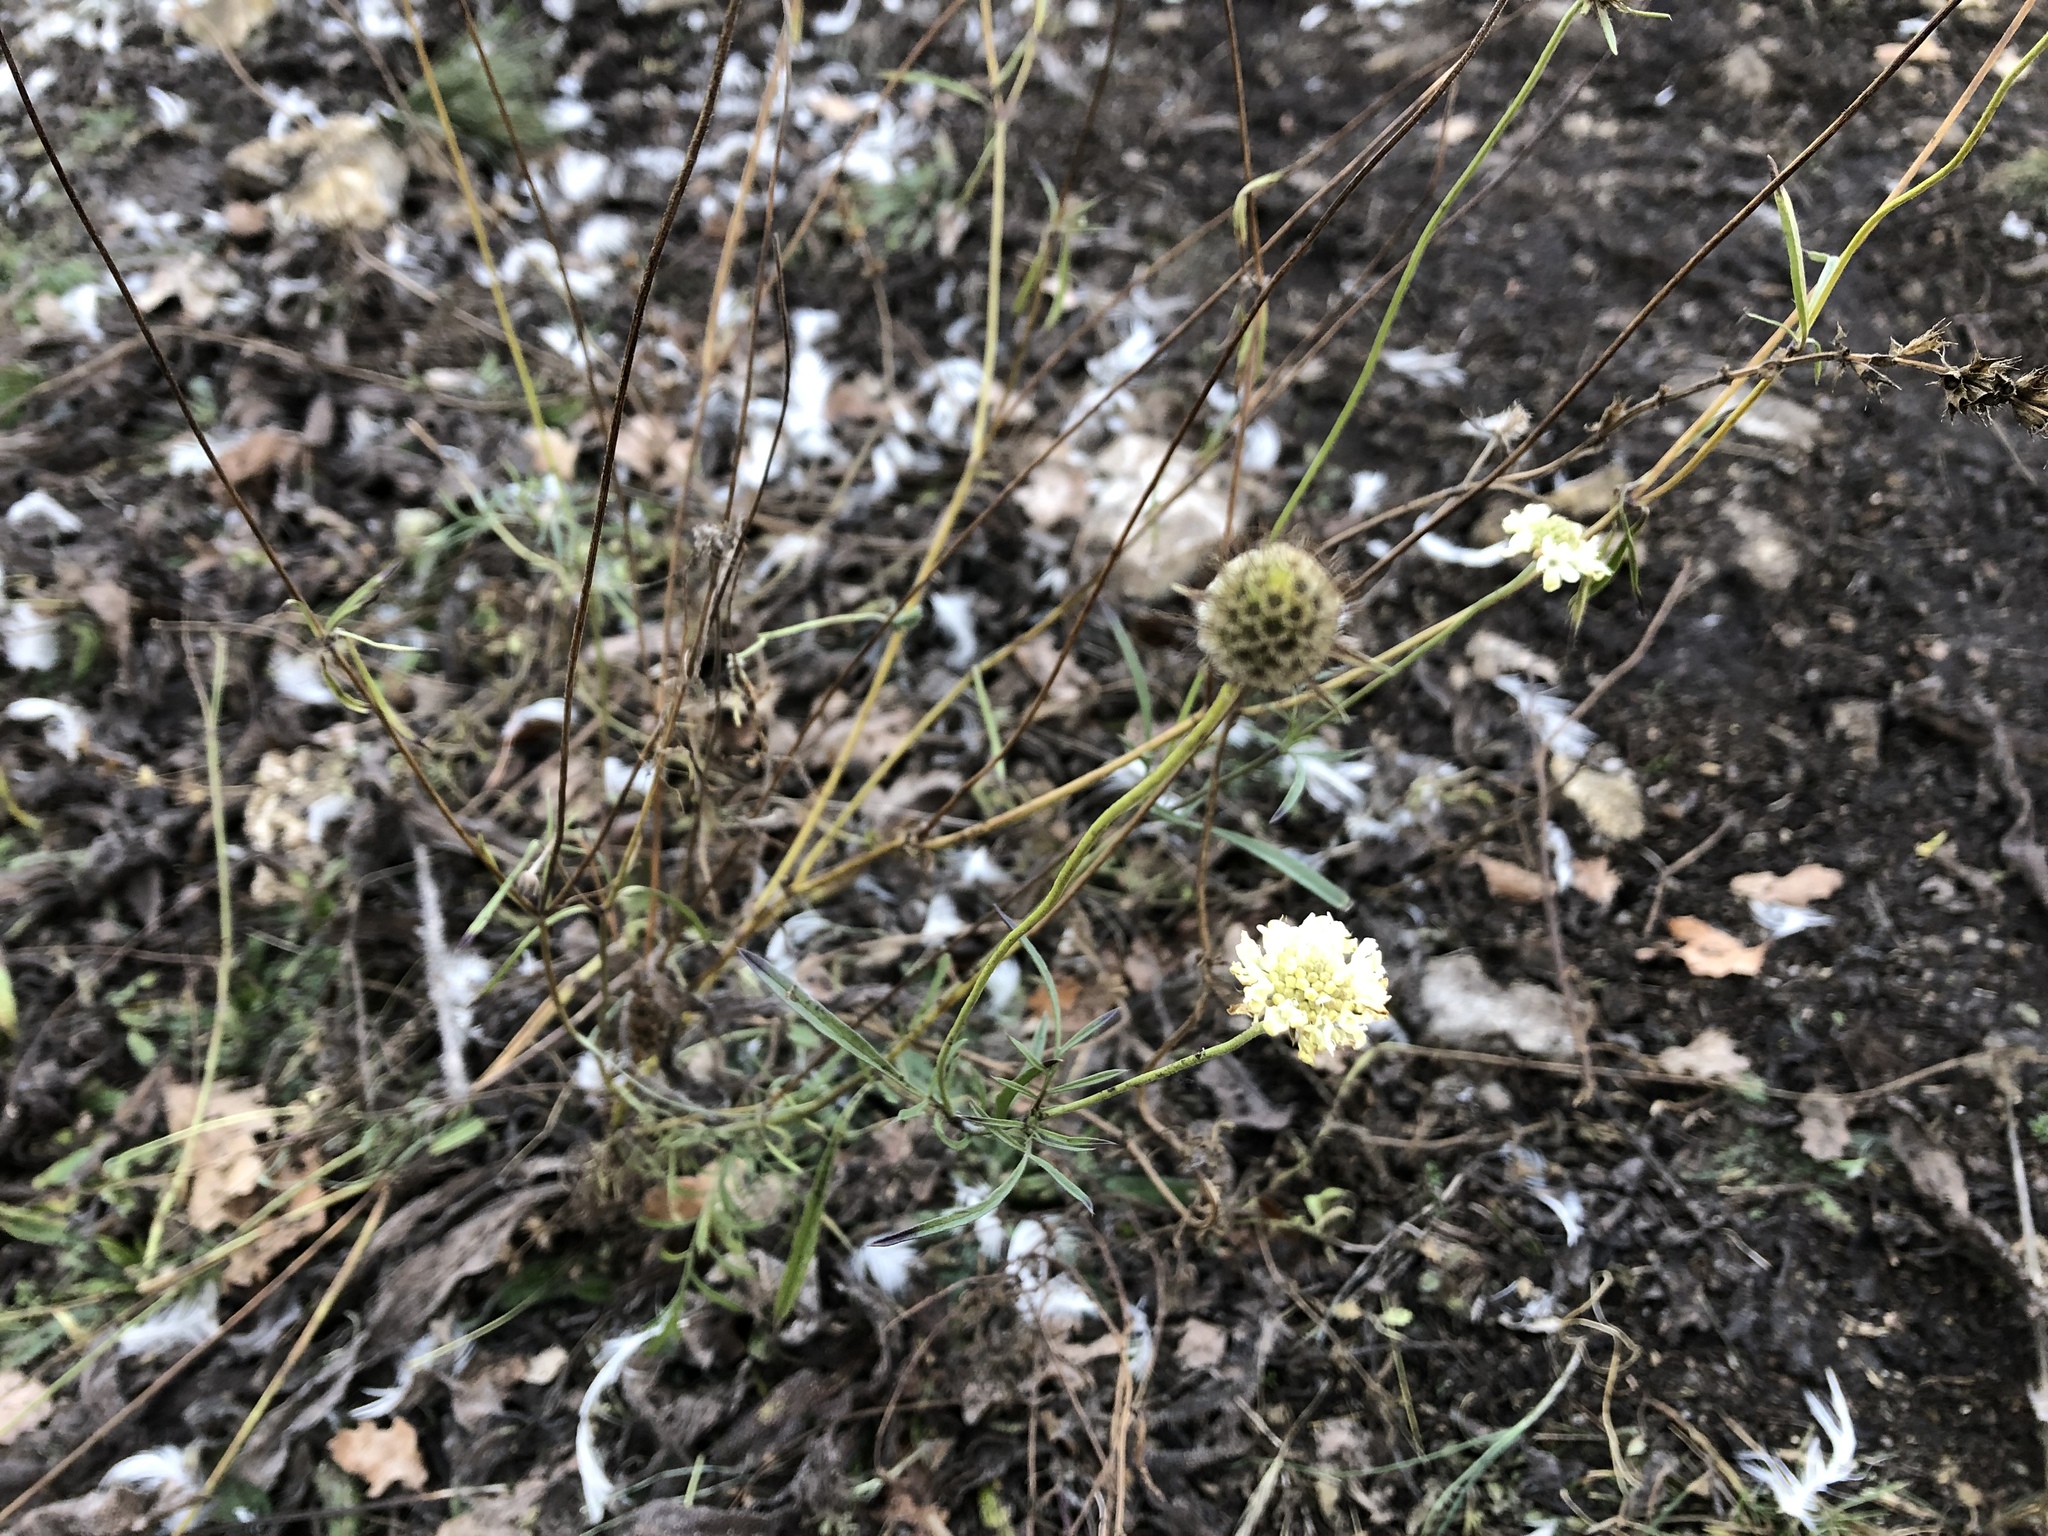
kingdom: Plantae
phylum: Tracheophyta
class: Magnoliopsida
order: Dipsacales
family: Caprifoliaceae
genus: Scabiosa
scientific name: Scabiosa ochroleuca
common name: Cream pincushions
